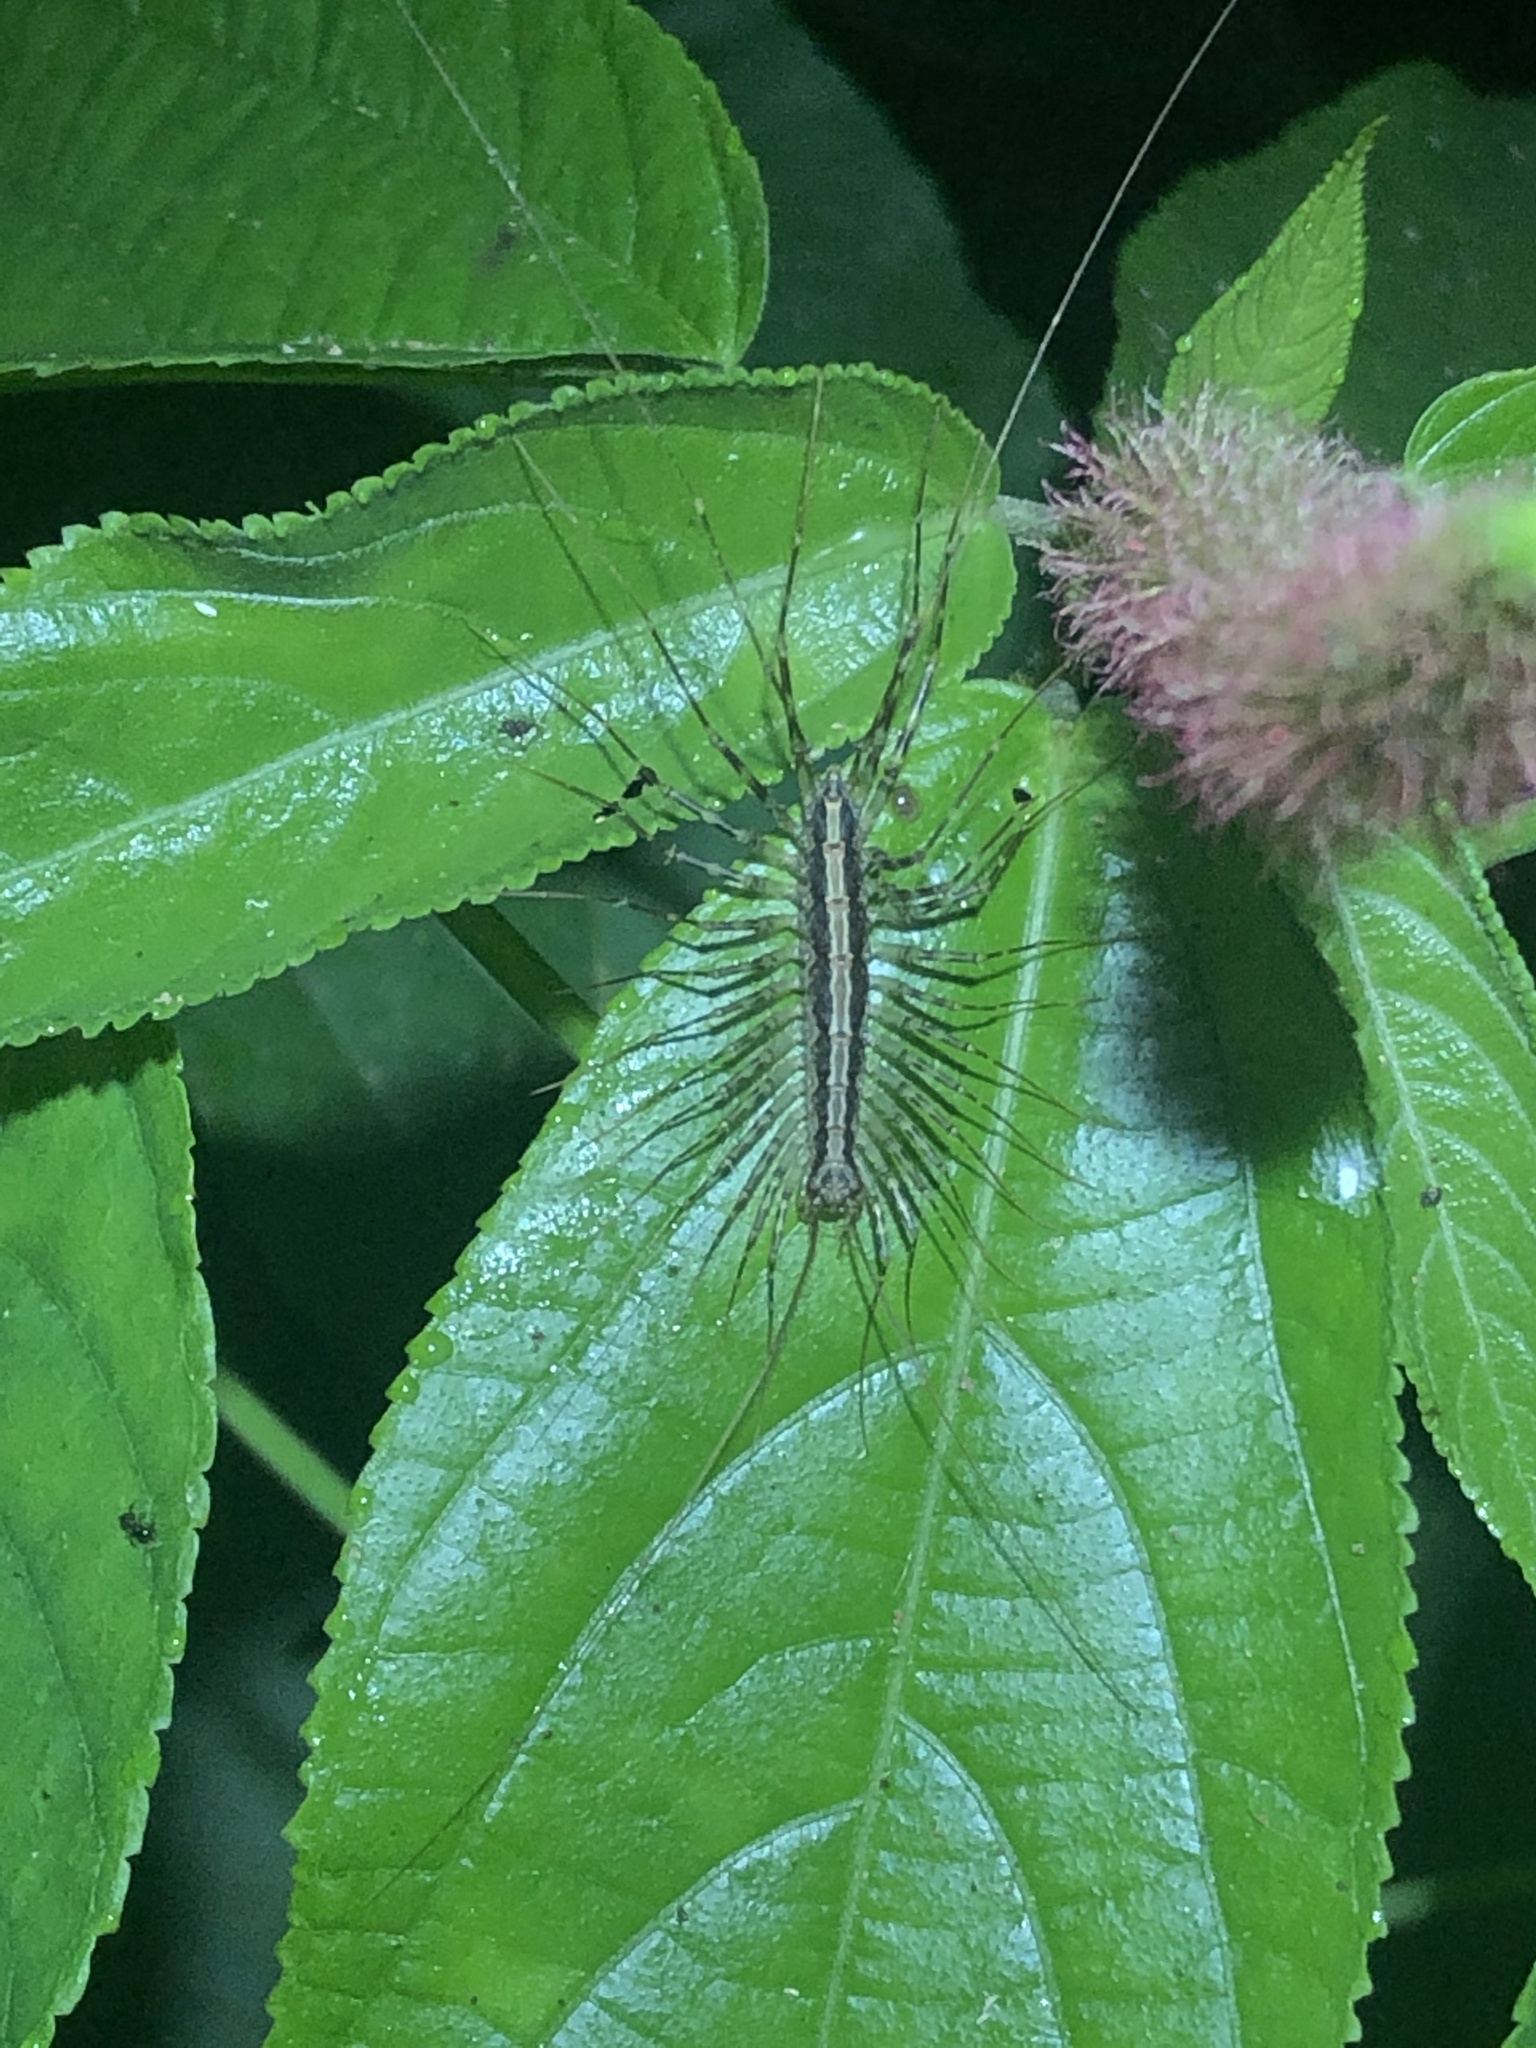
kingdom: Animalia
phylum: Arthropoda
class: Chilopoda
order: Scutigeromorpha
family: Pselliodidae
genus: Sphendononema
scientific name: Sphendononema guildingii
